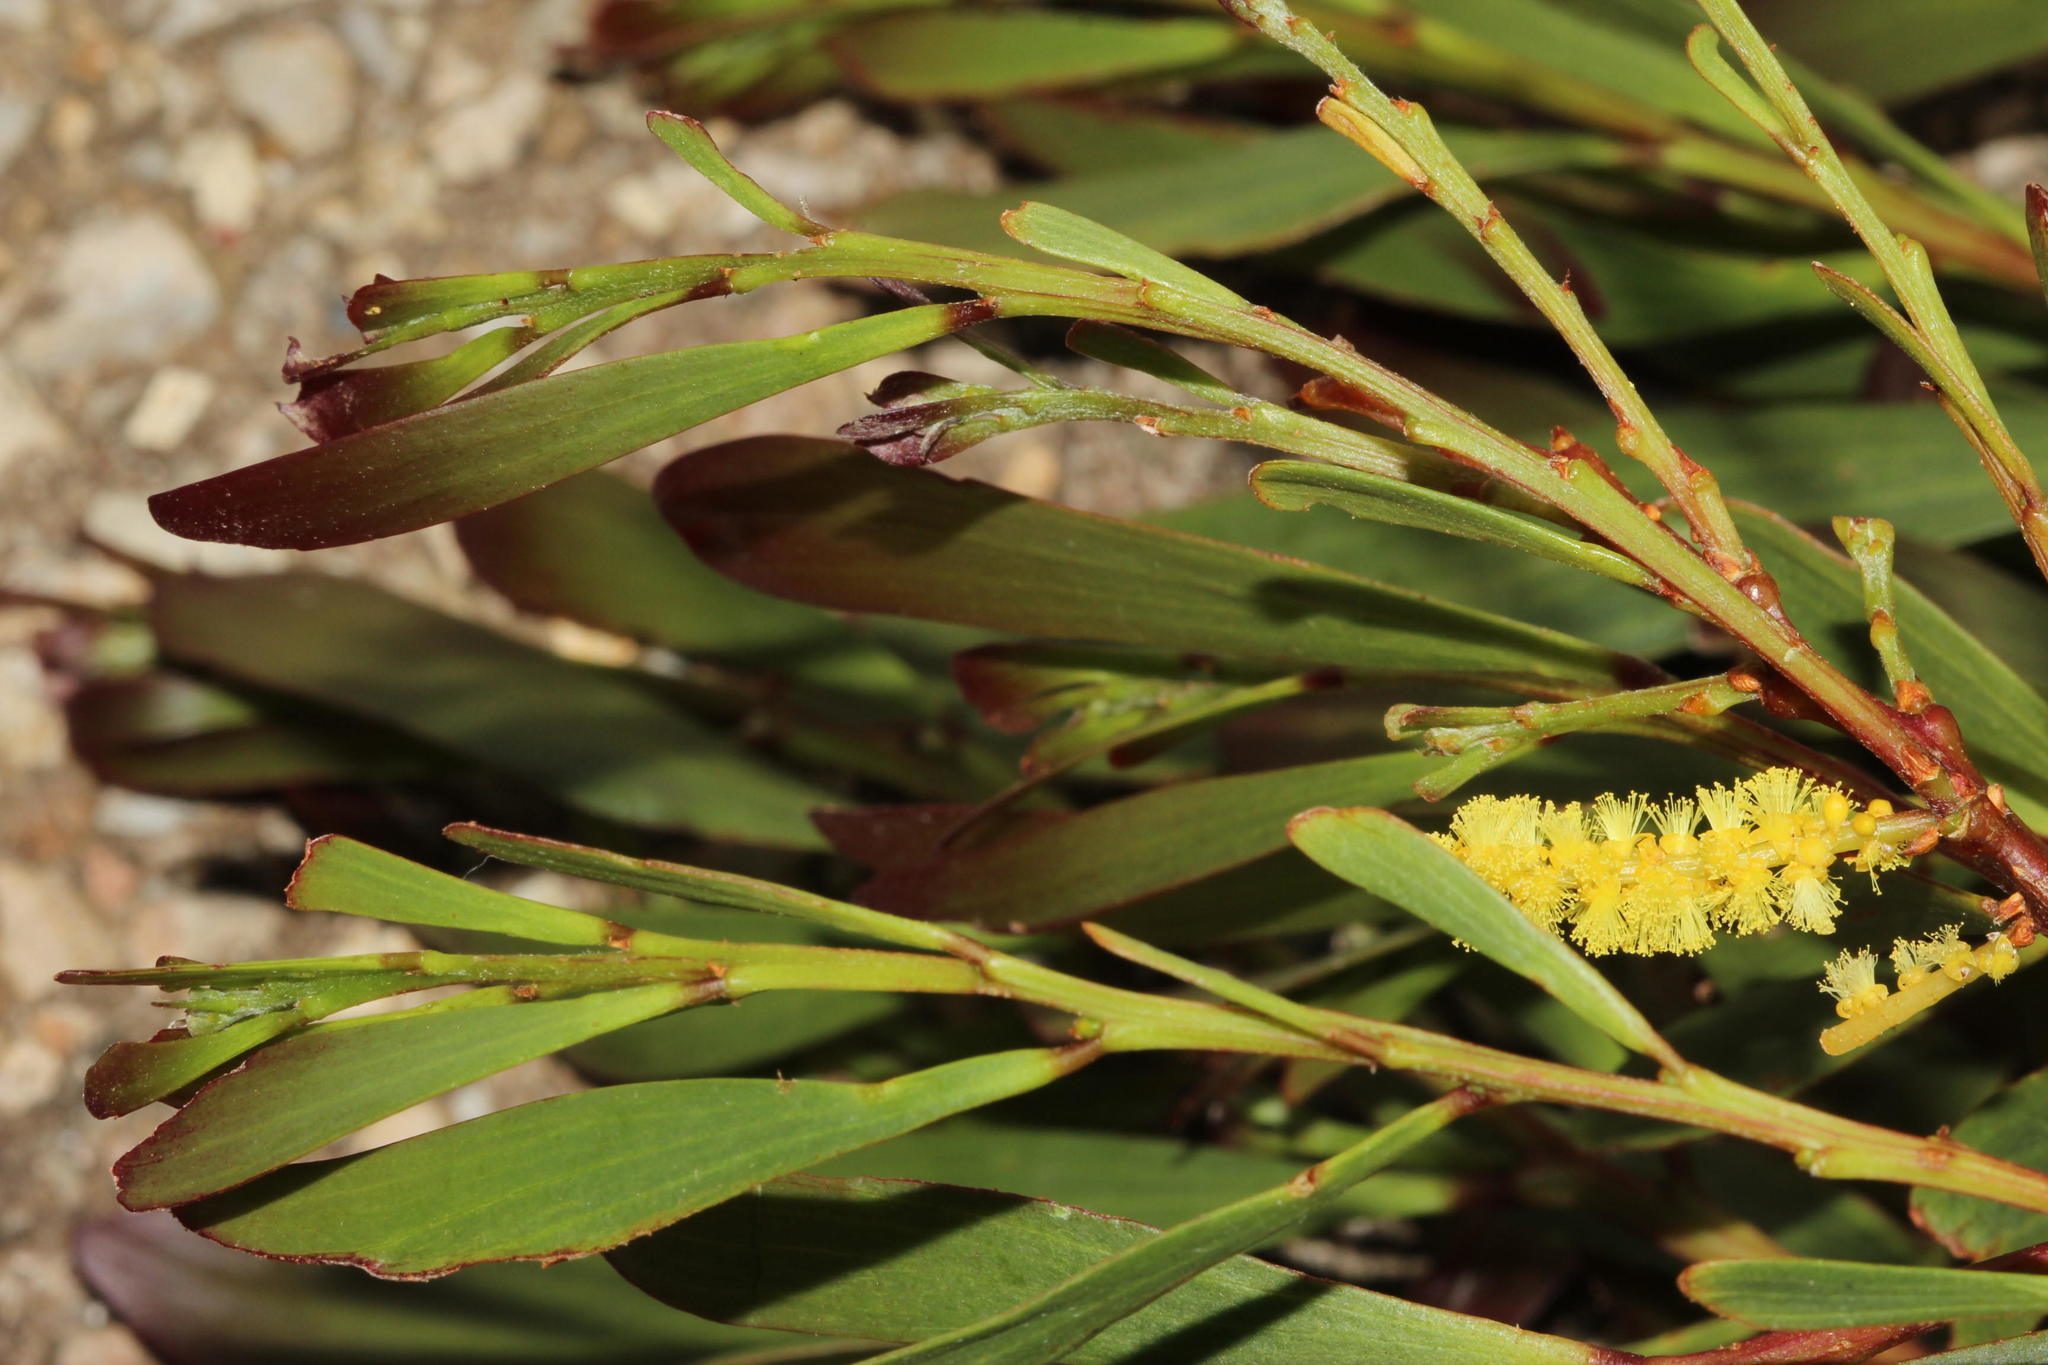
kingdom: Plantae
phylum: Tracheophyta
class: Magnoliopsida
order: Fabales
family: Fabaceae
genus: Acacia
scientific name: Acacia longifolia
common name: Sydney golden wattle
